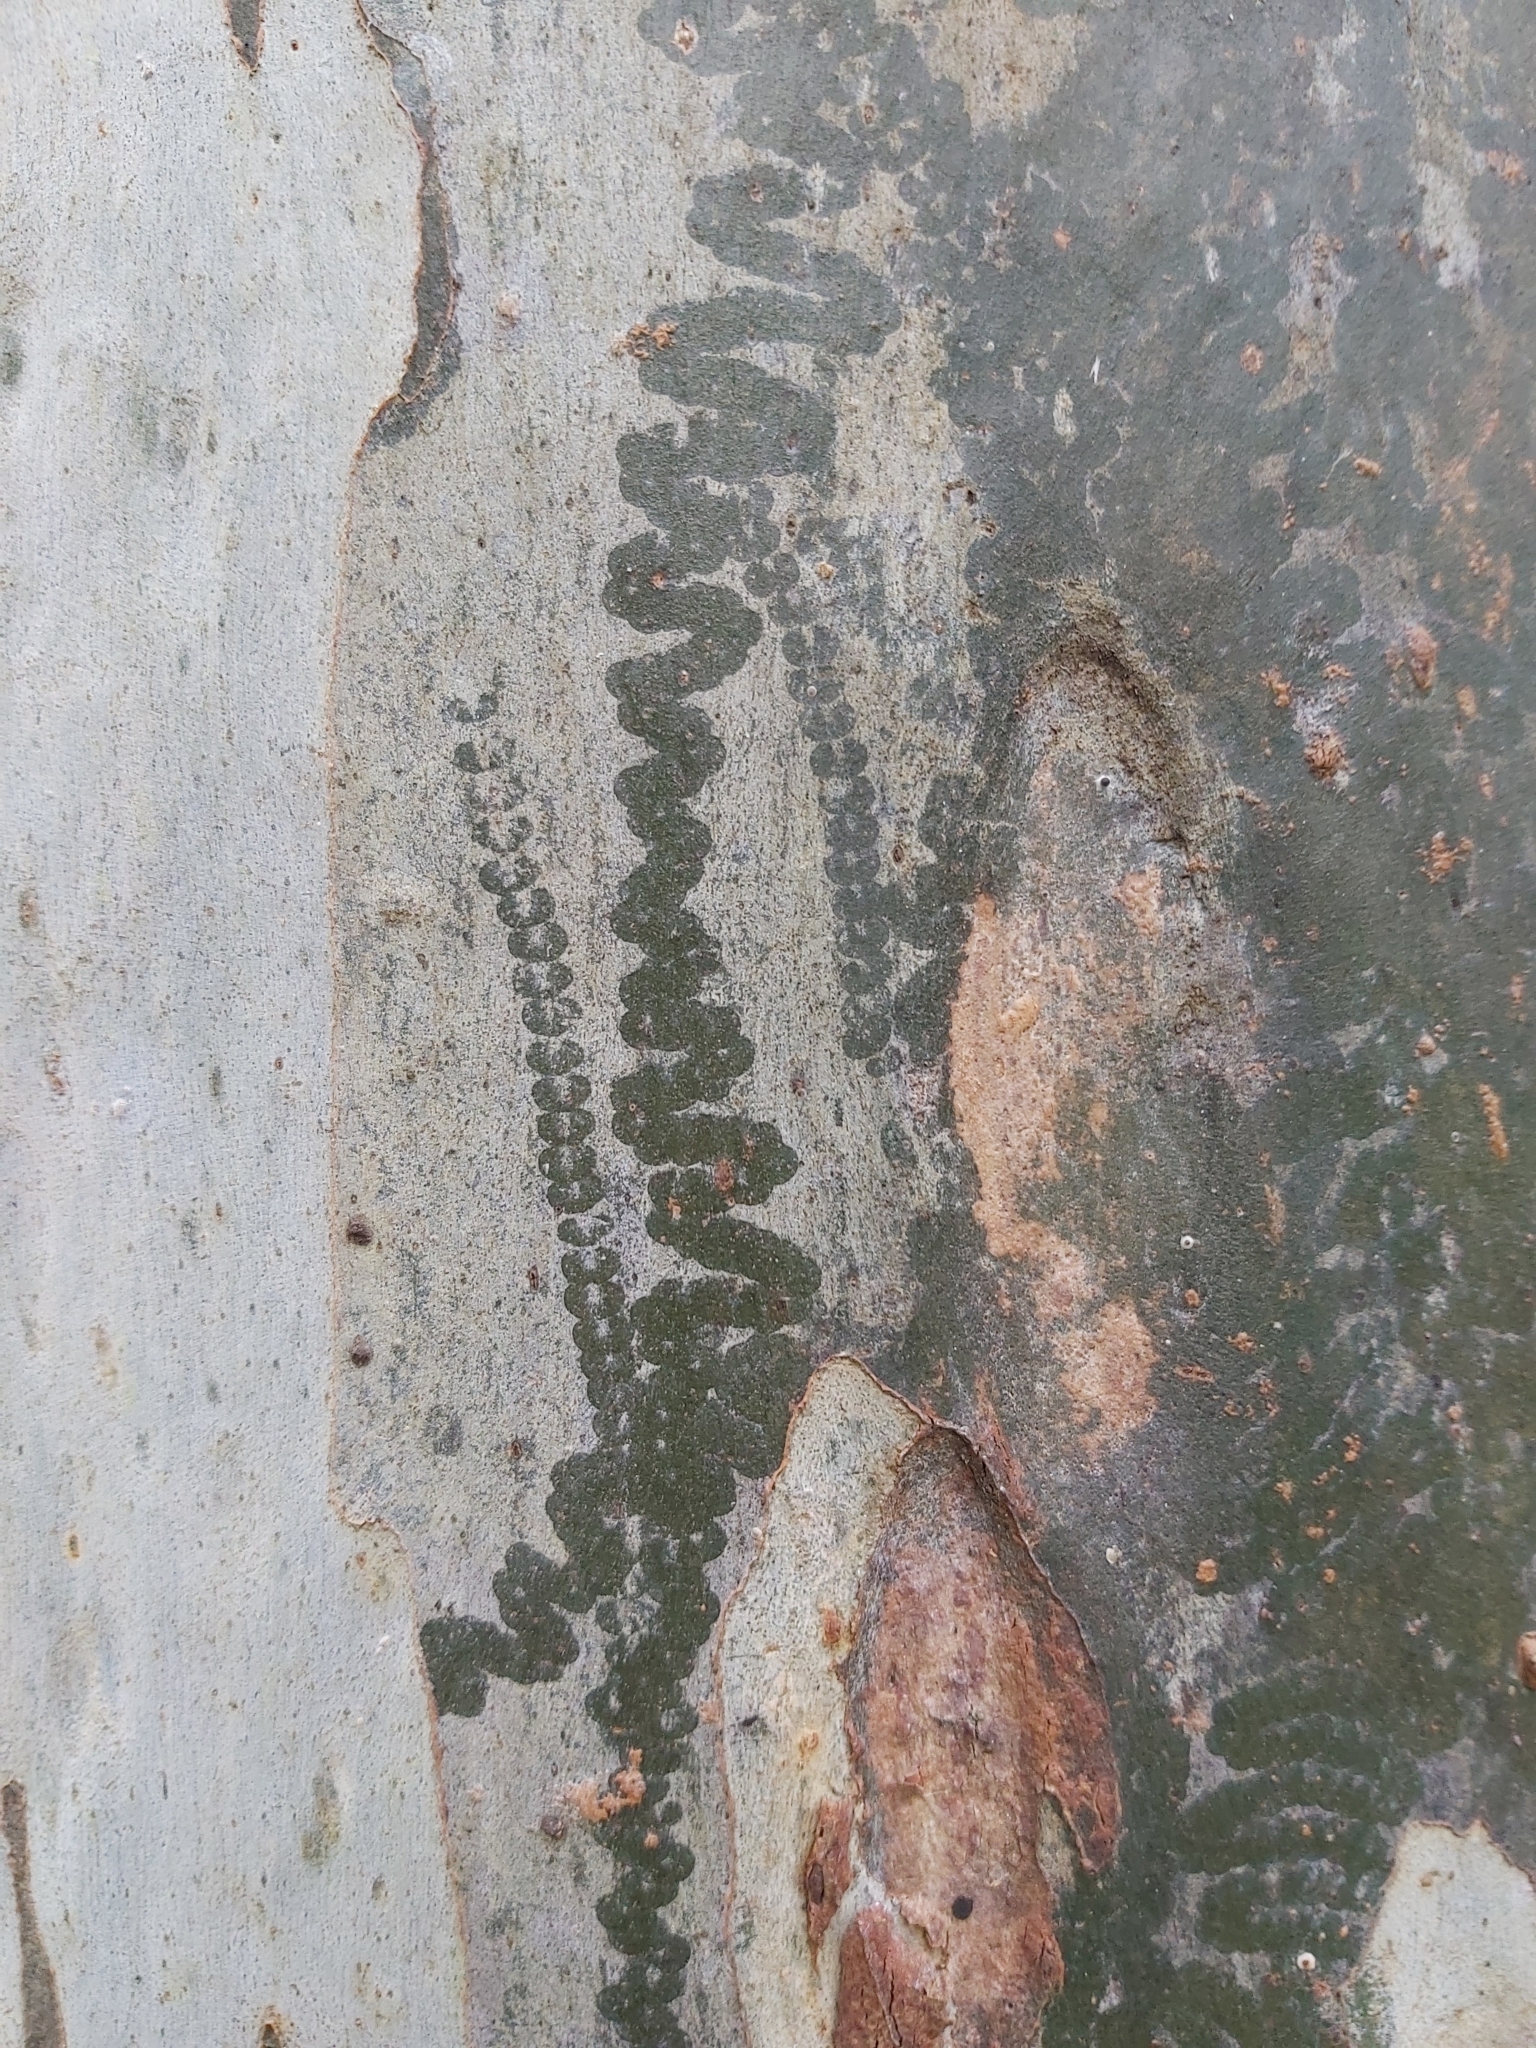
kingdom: Animalia
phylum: Mollusca
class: Gastropoda
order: Stylommatophora
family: Athoracophoridae
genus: Triboniophorus
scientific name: Triboniophorus graeffei
